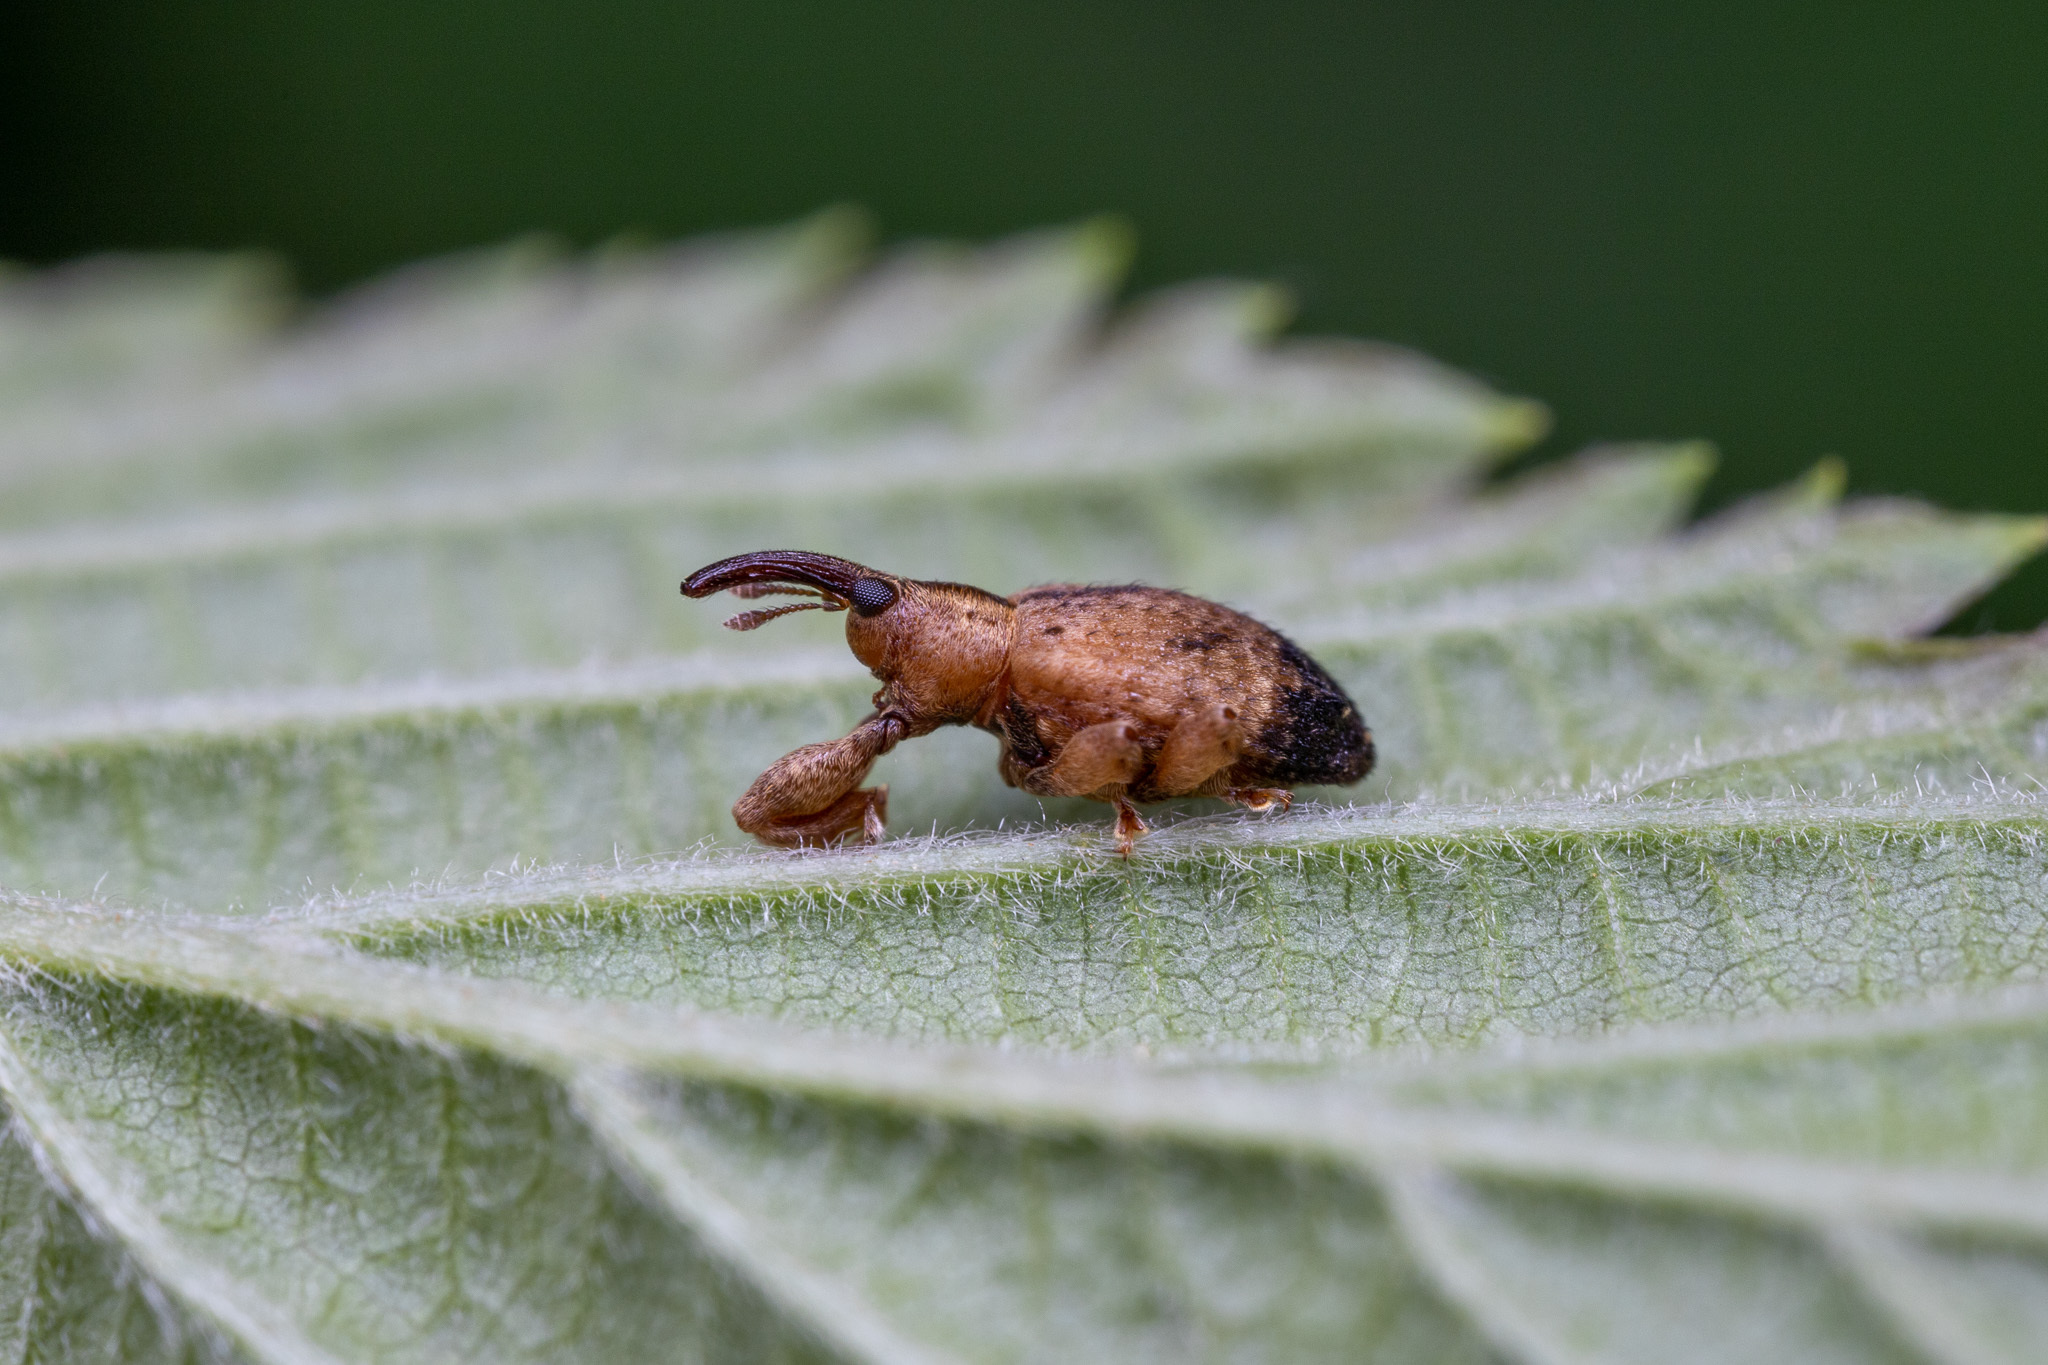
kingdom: Animalia
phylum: Arthropoda
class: Insecta
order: Coleoptera
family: Curculionidae
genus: Ochyromera
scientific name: Ochyromera ligustri
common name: Weevil
